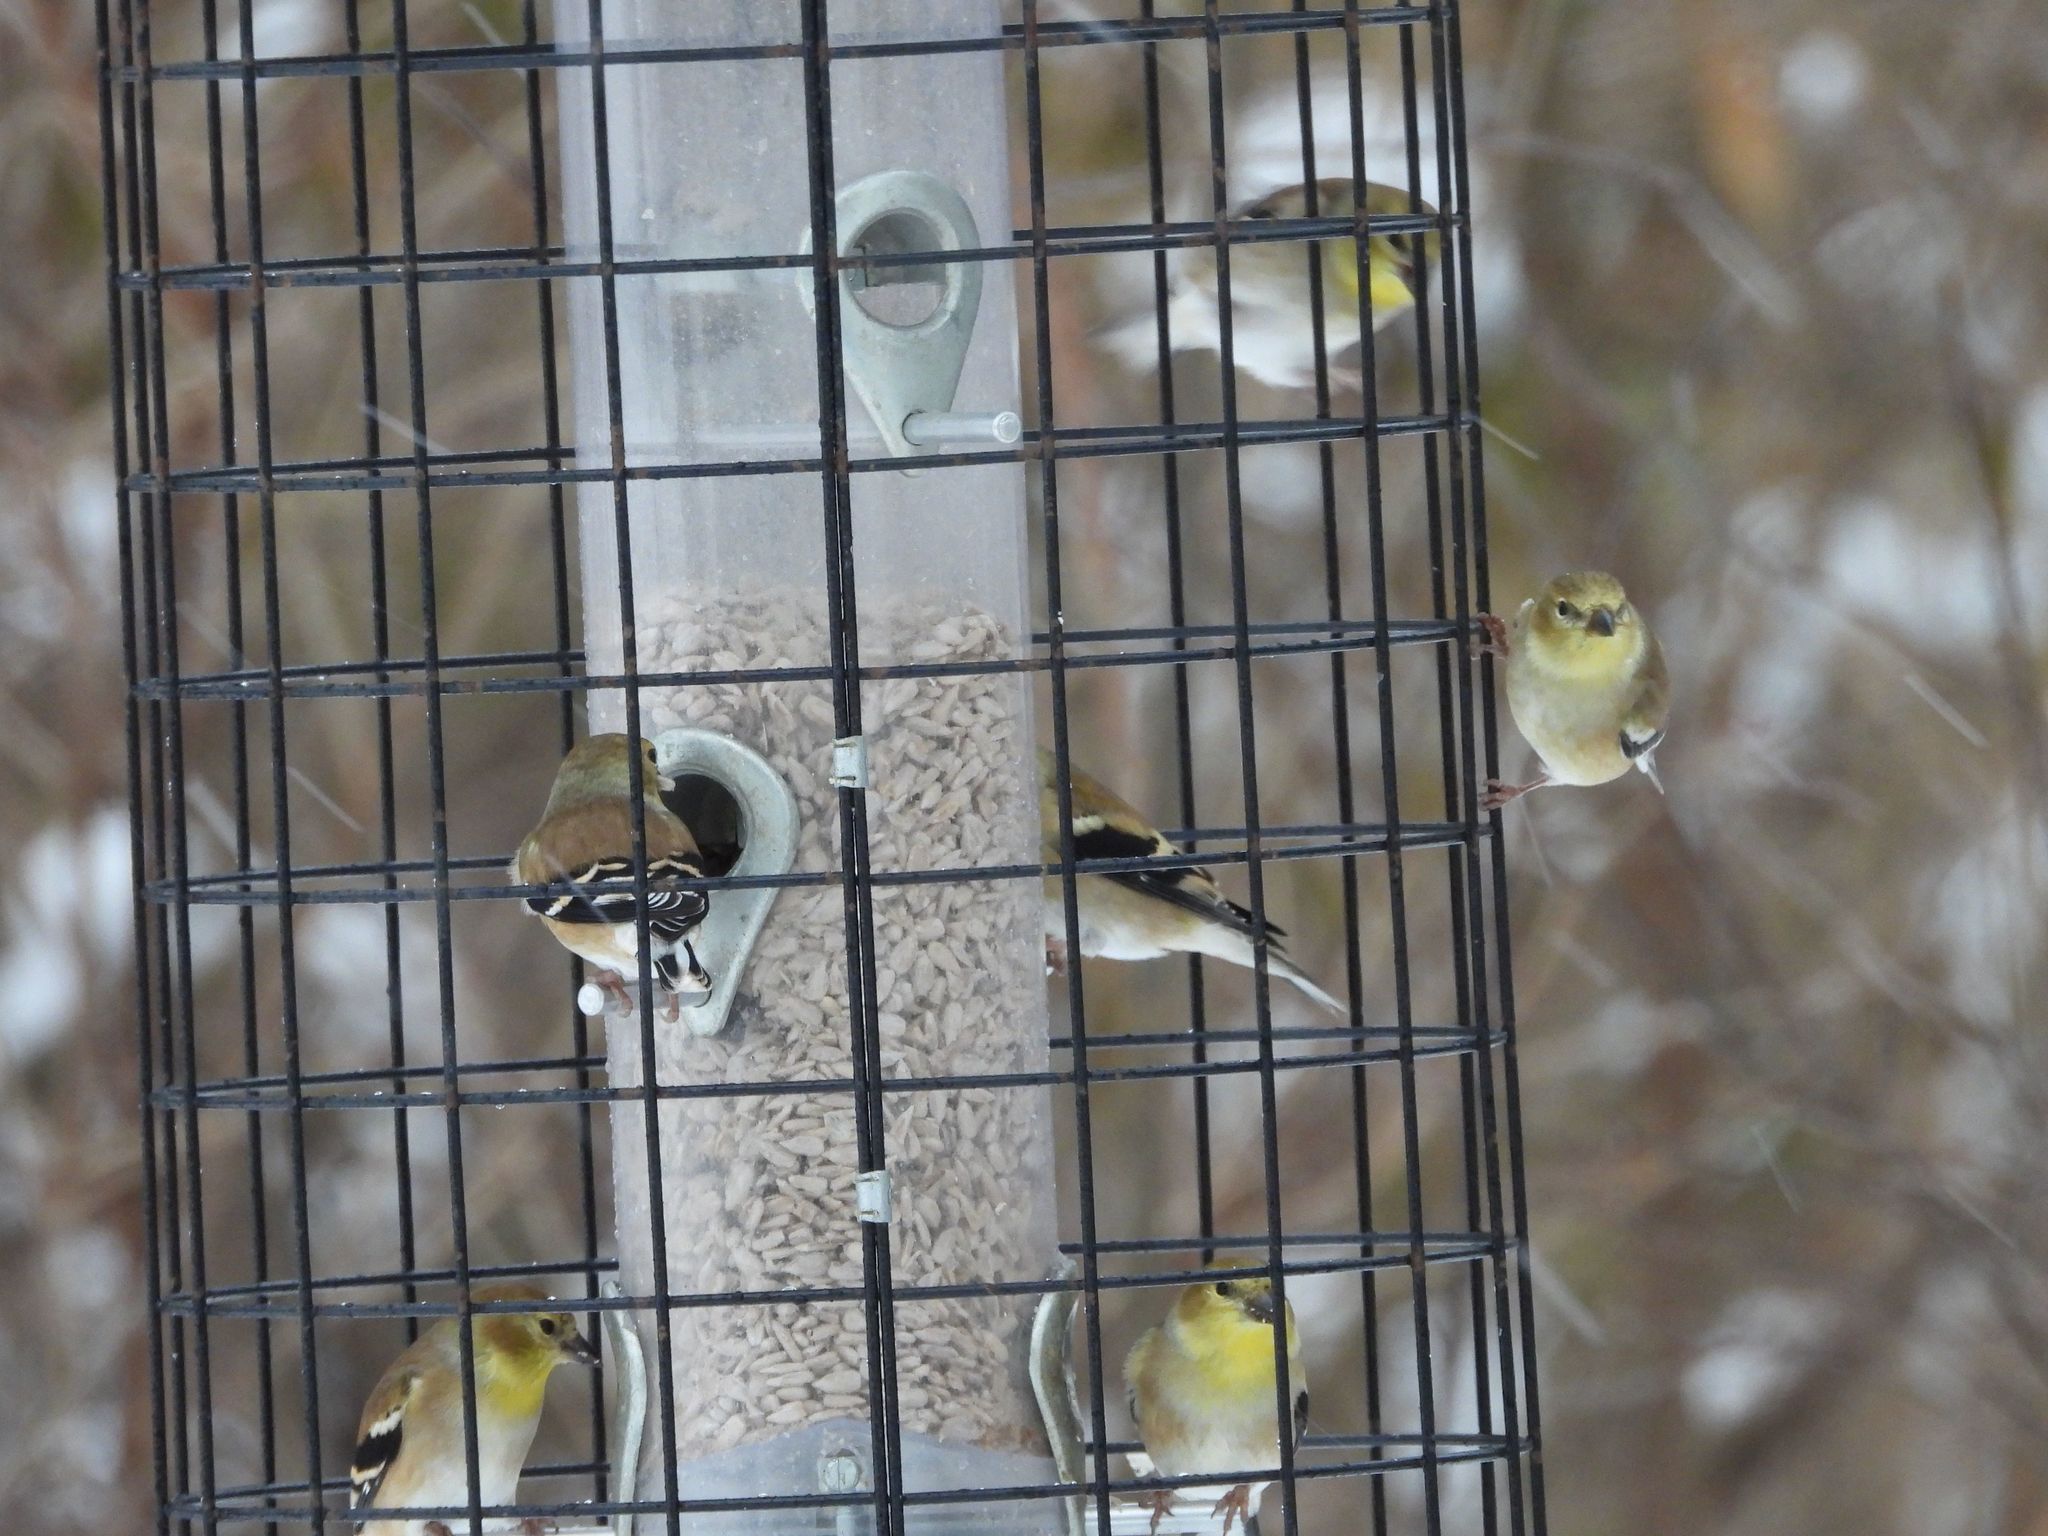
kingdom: Animalia
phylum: Chordata
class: Aves
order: Passeriformes
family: Fringillidae
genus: Spinus
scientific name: Spinus tristis
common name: American goldfinch
